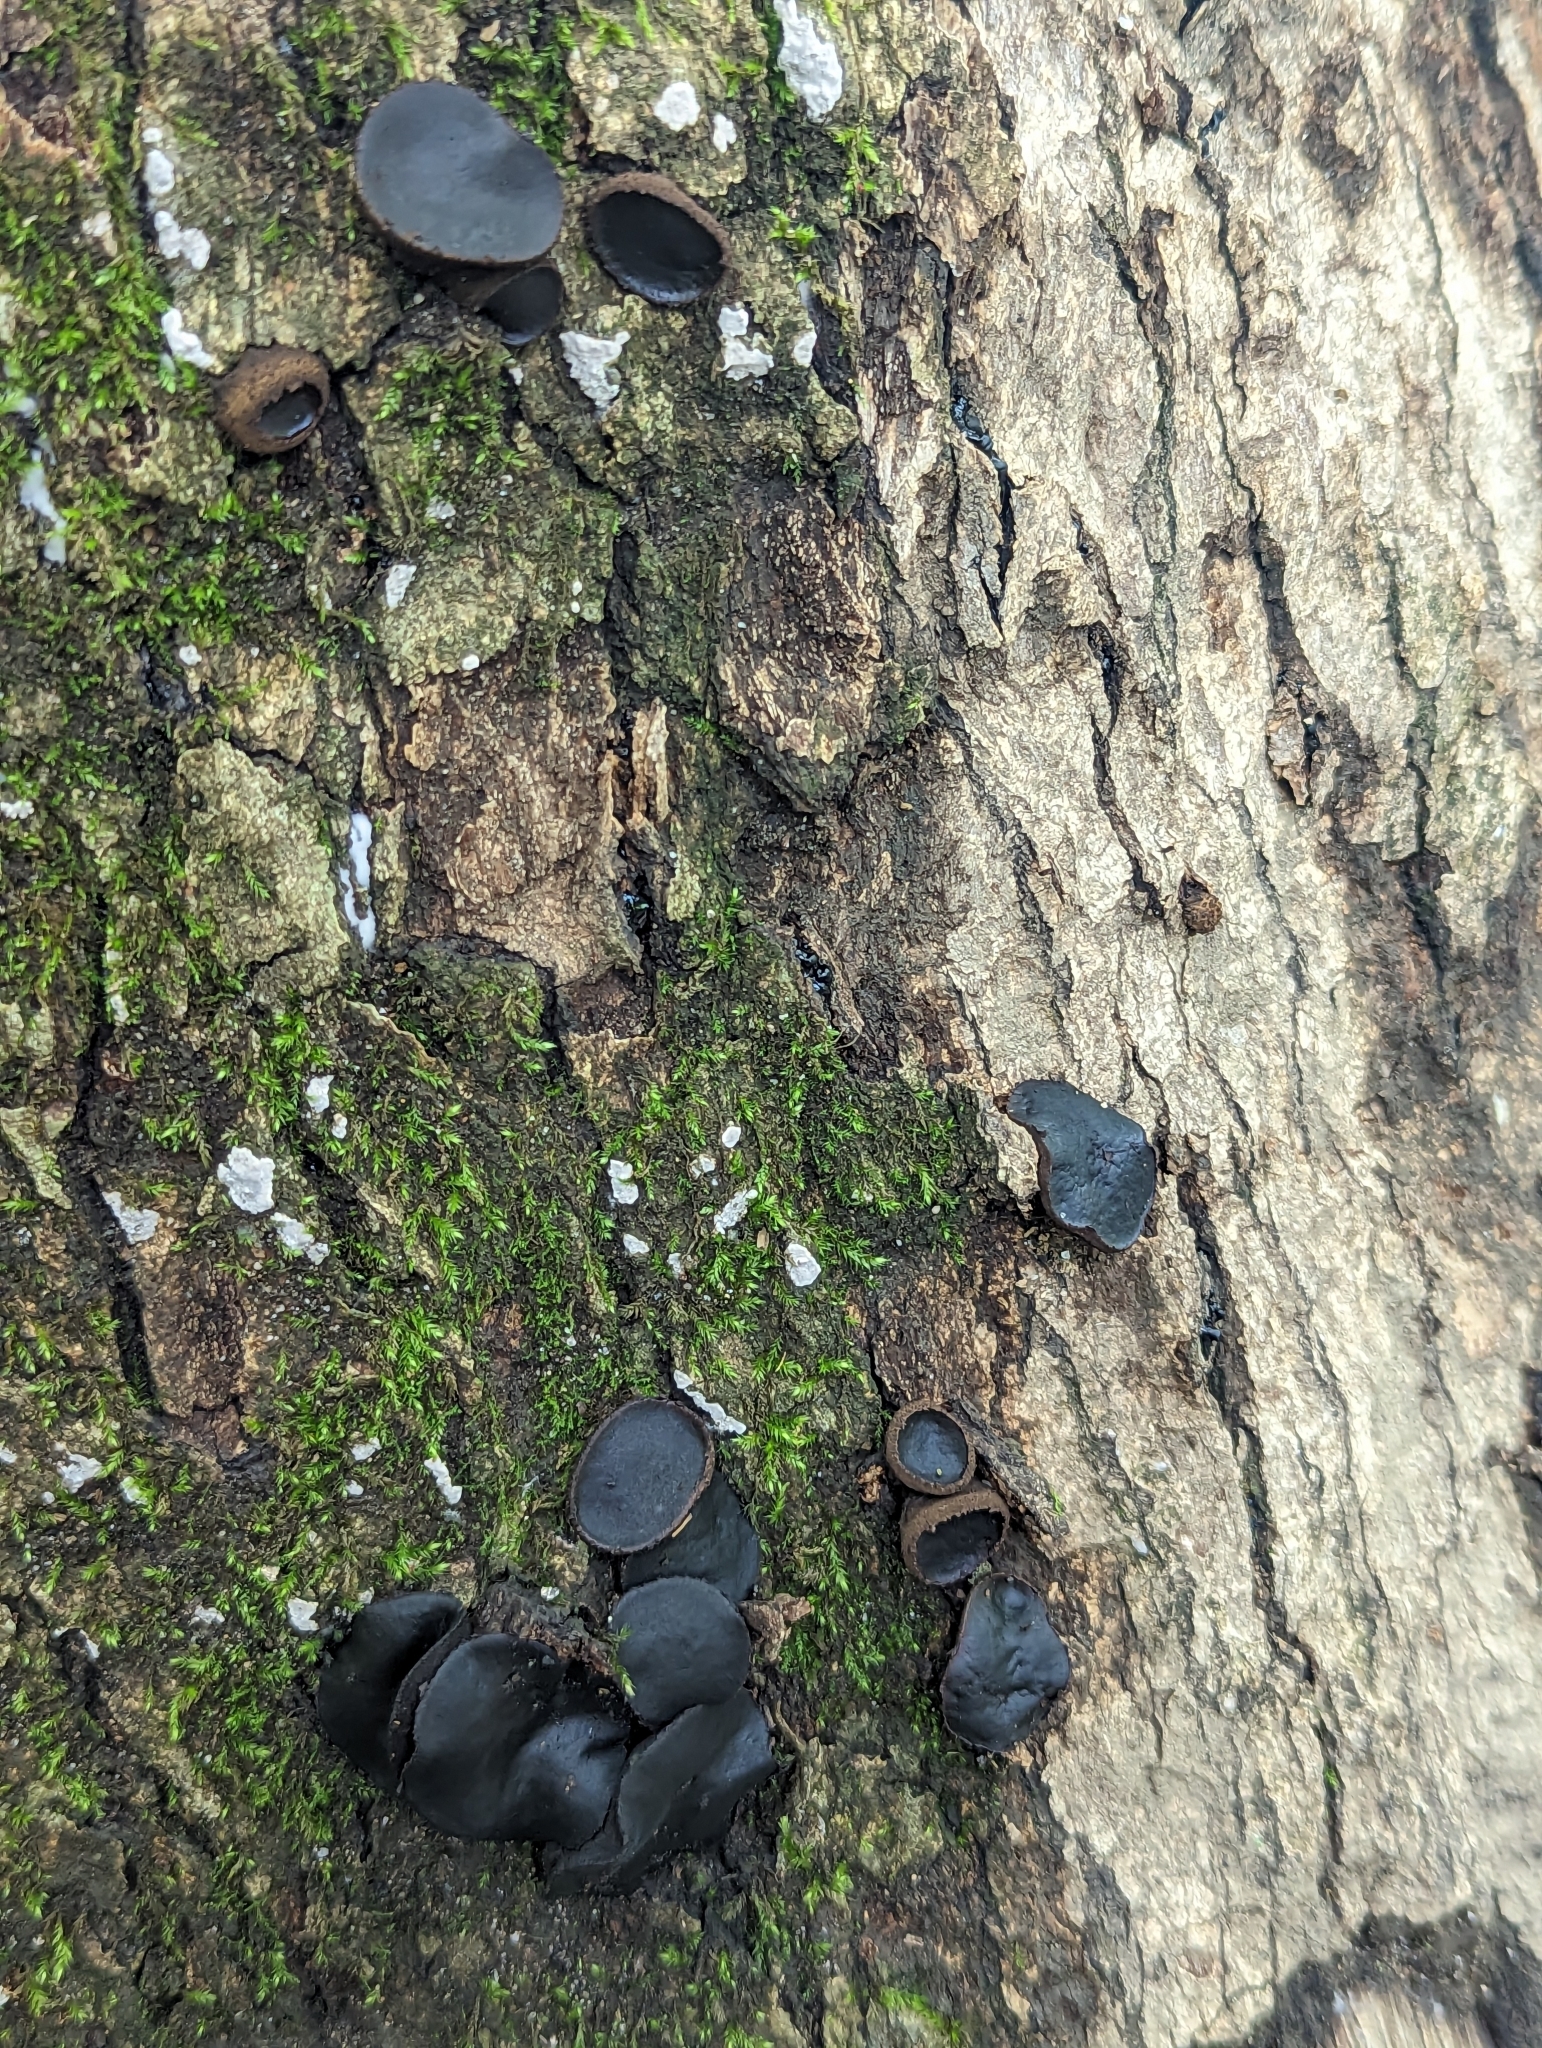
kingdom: Fungi
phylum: Ascomycota
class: Leotiomycetes
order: Phacidiales
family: Phacidiaceae
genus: Bulgaria
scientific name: Bulgaria inquinans
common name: Black bulgar
